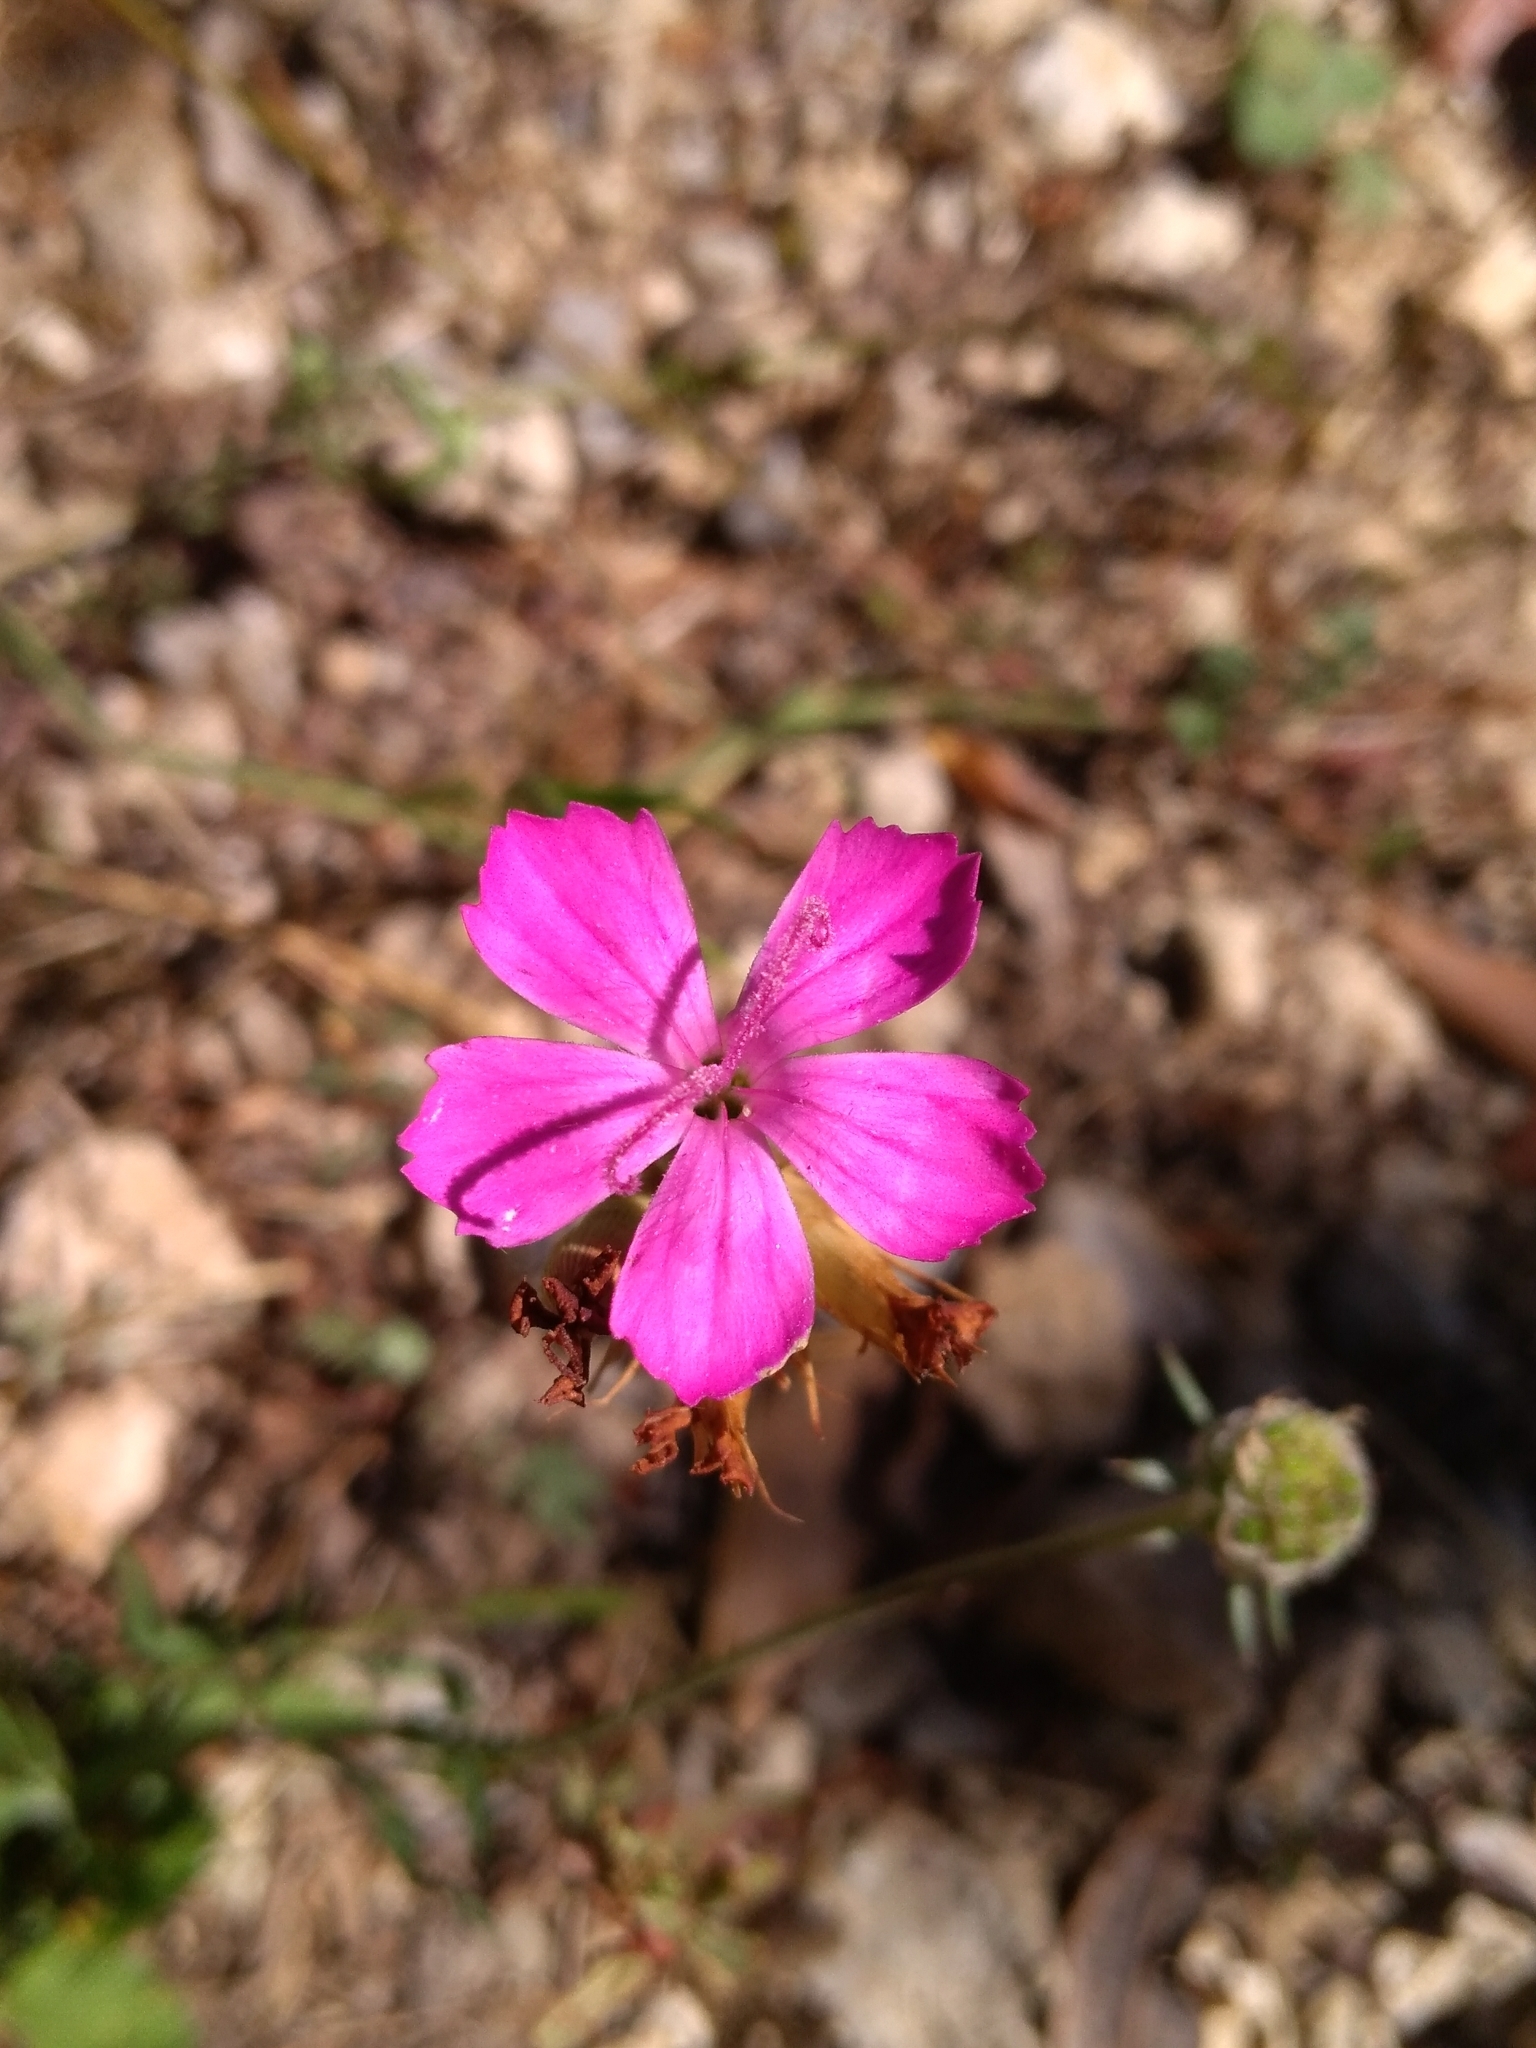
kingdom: Plantae
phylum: Tracheophyta
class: Magnoliopsida
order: Caryophyllales
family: Caryophyllaceae
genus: Dianthus
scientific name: Dianthus balbisii
